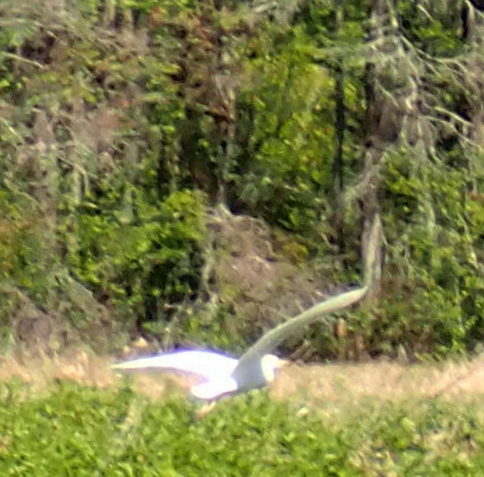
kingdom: Animalia
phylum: Chordata
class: Aves
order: Pelecaniformes
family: Ardeidae
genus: Bubulcus
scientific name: Bubulcus ibis
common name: Cattle egret
